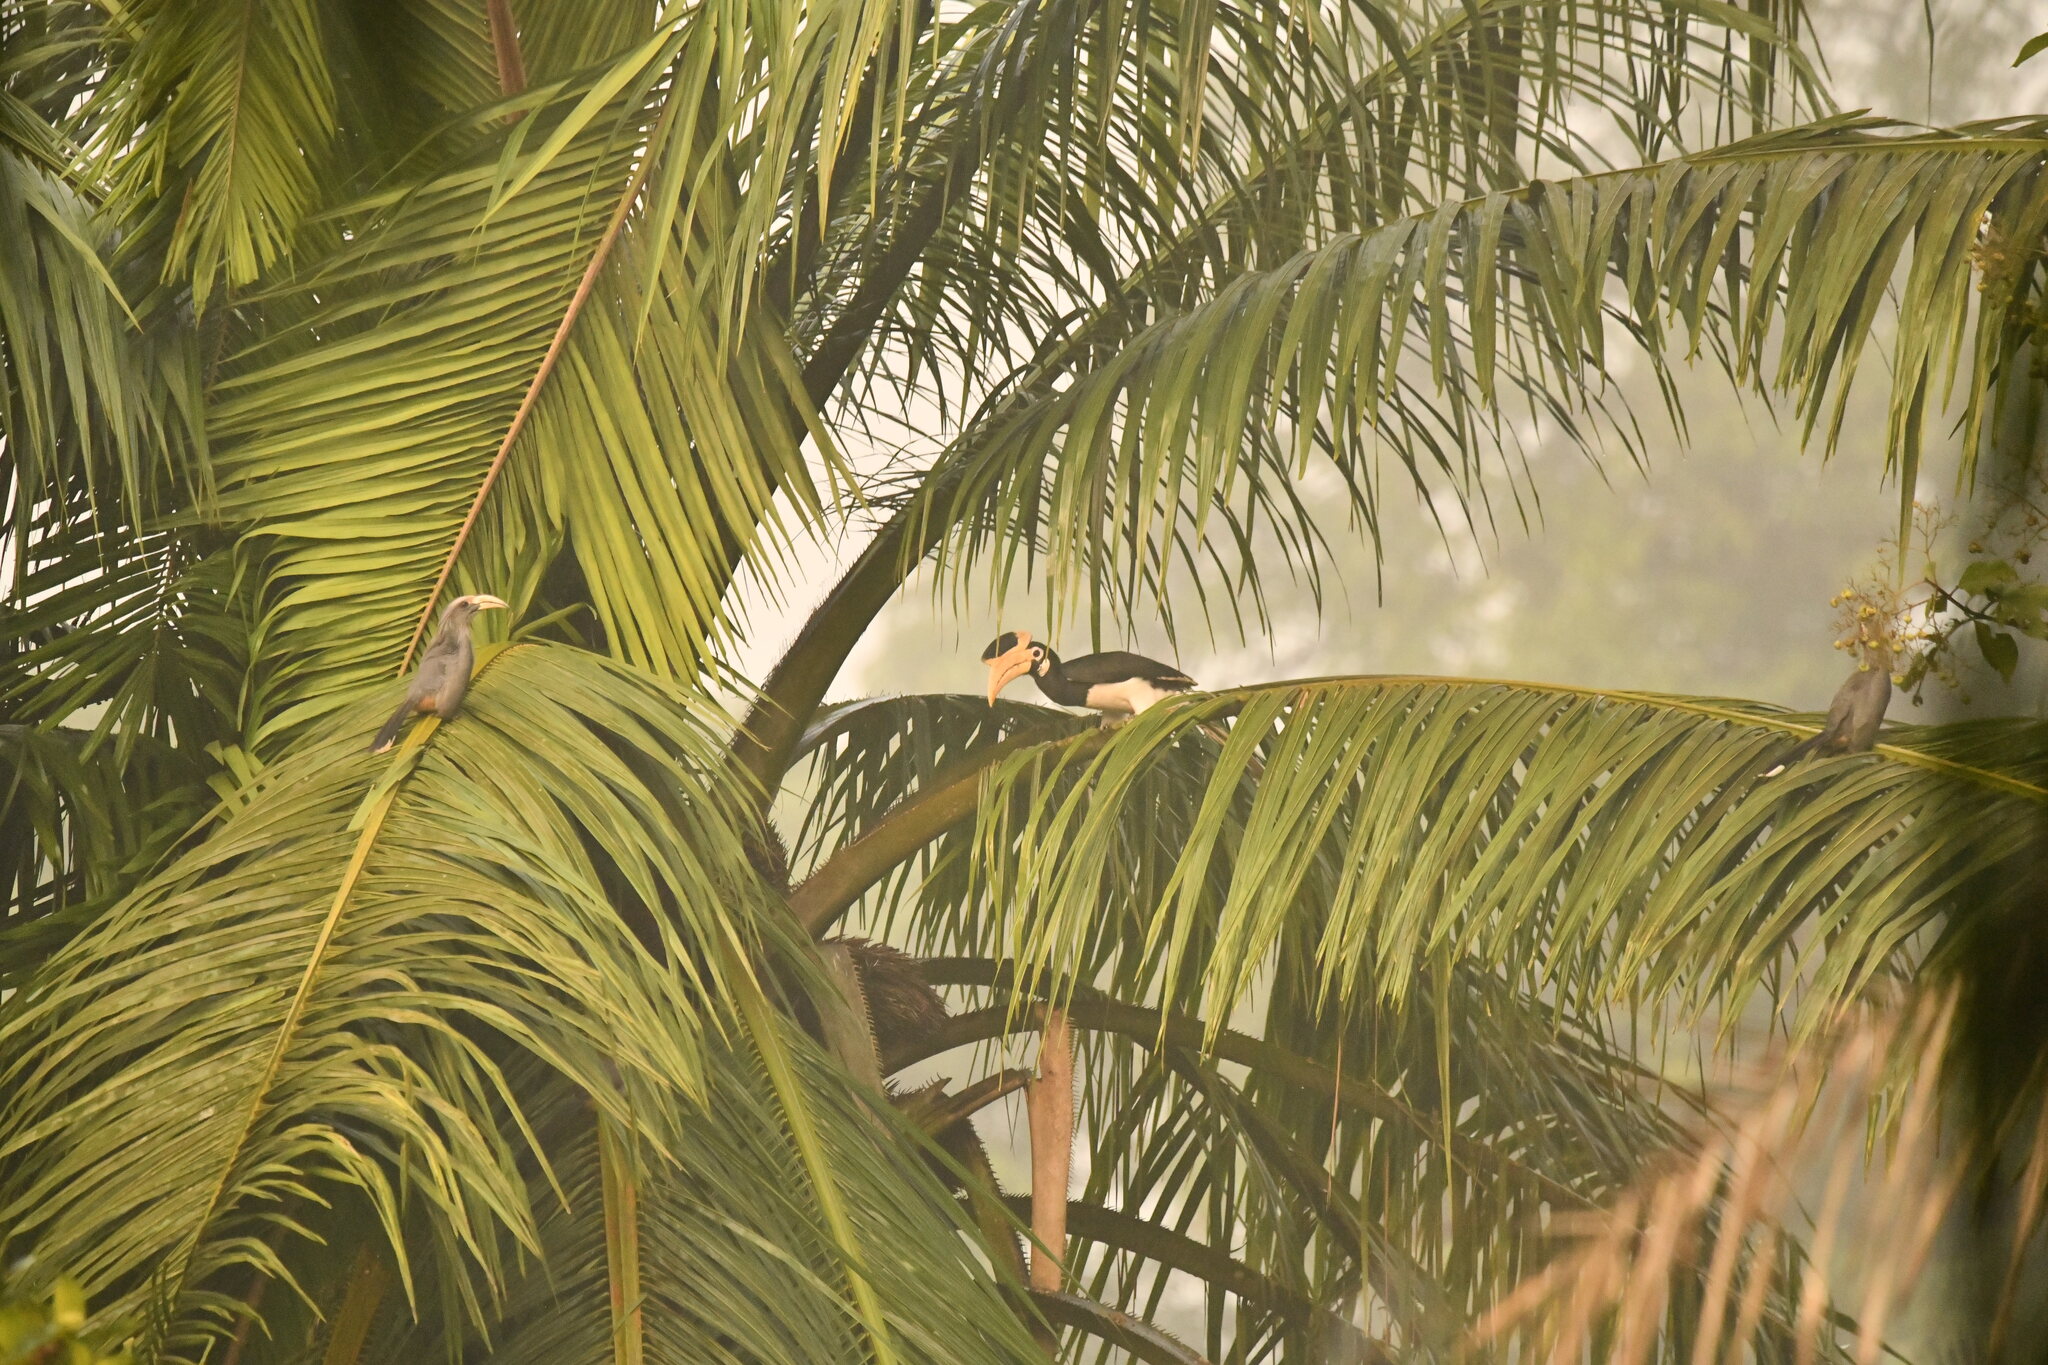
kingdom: Animalia
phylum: Chordata
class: Aves
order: Bucerotiformes
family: Bucerotidae
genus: Anthracoceros
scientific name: Anthracoceros coronatus
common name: Malabar pied hornbill
